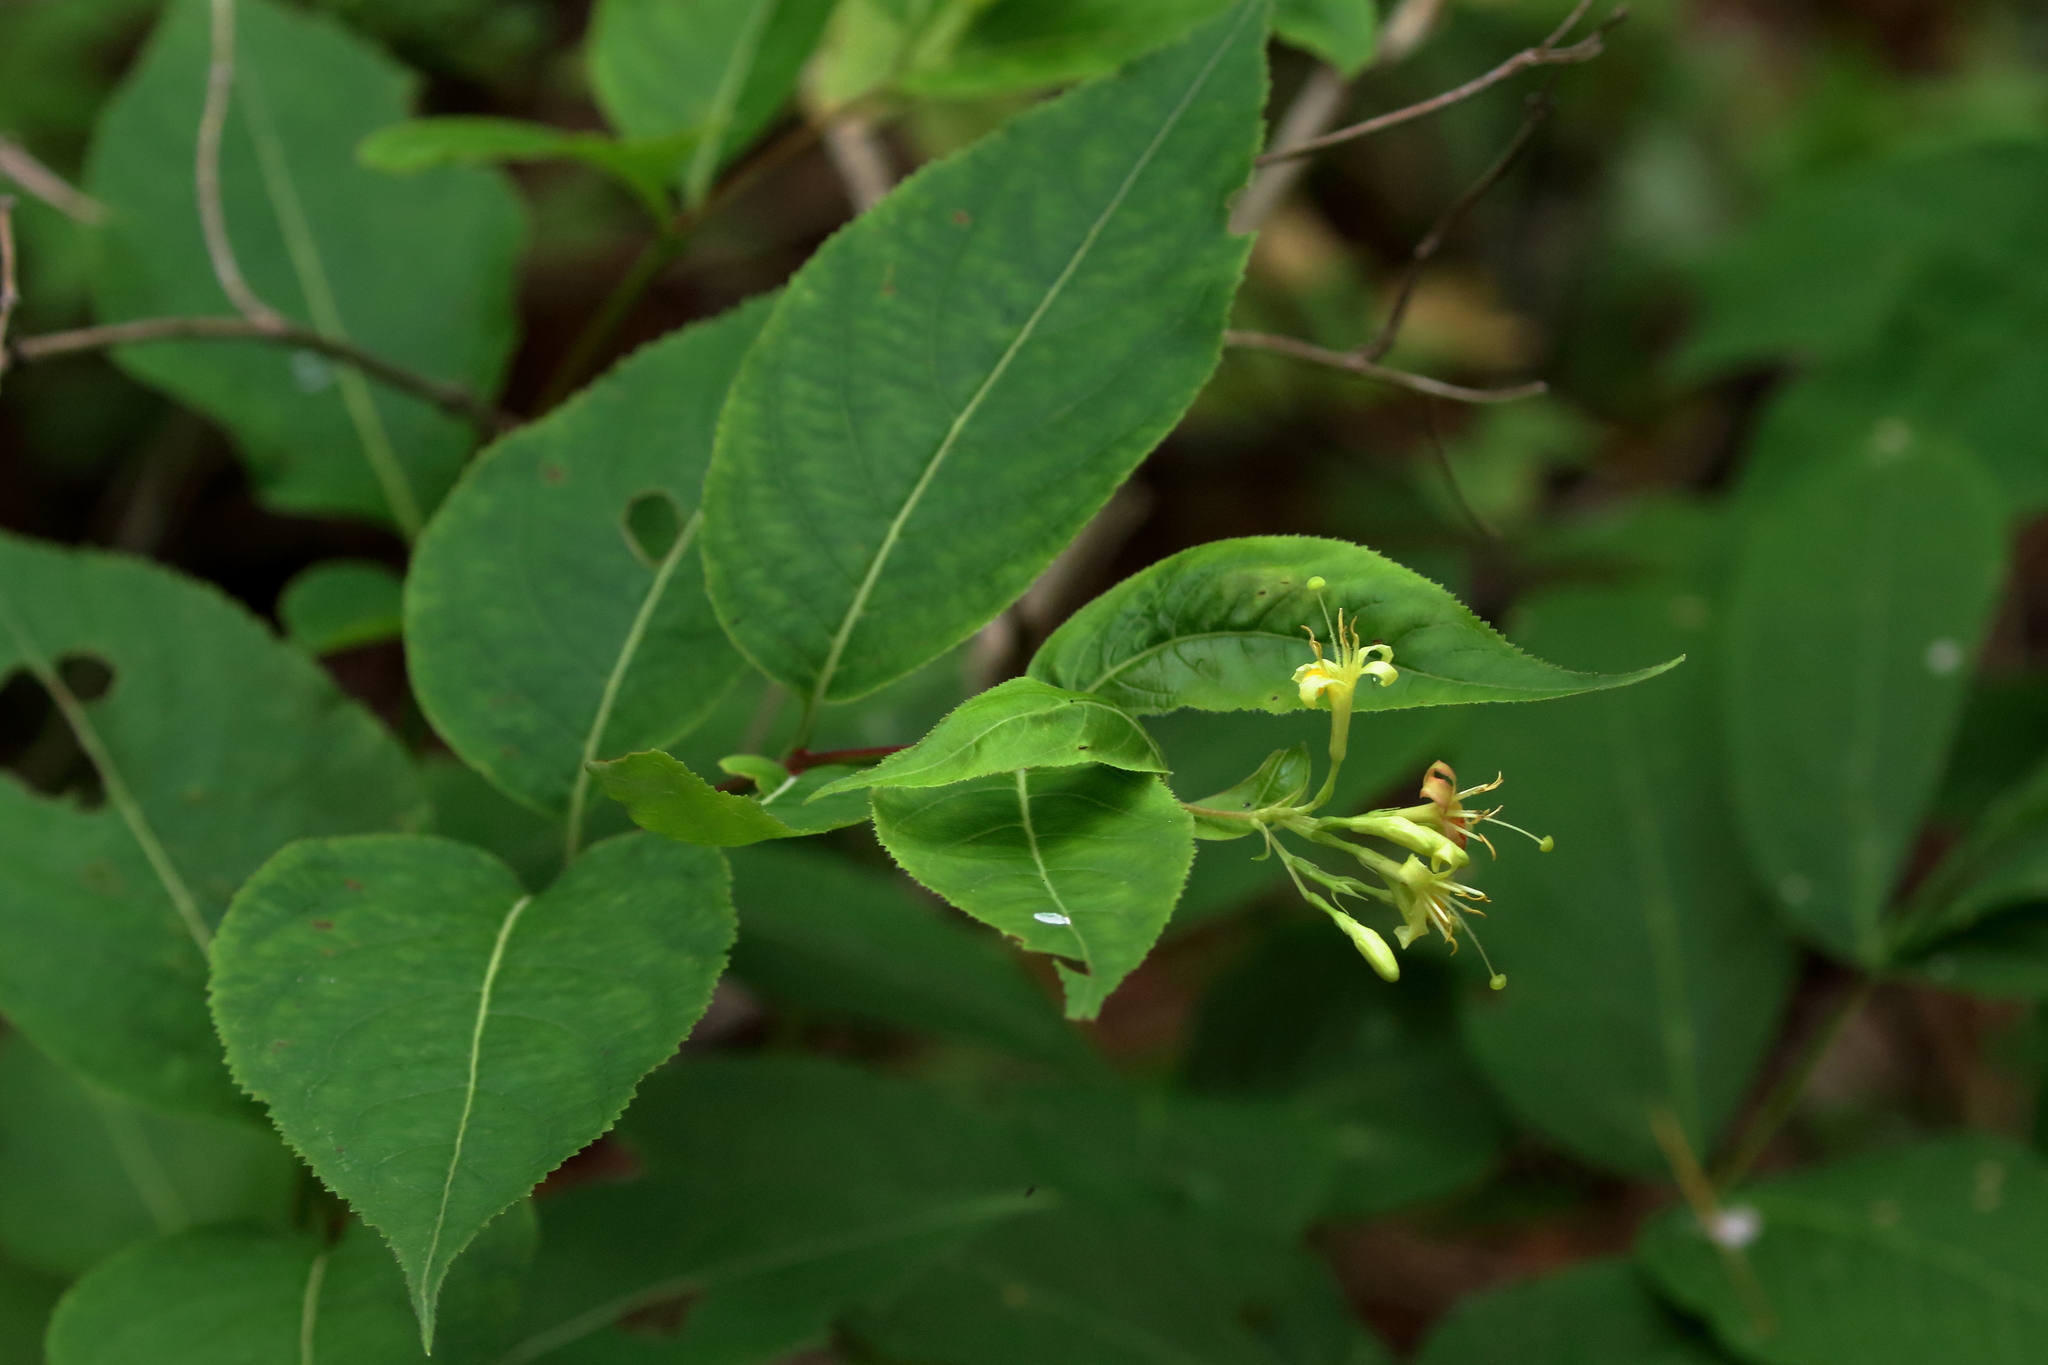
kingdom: Plantae
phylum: Tracheophyta
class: Magnoliopsida
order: Dipsacales
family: Caprifoliaceae
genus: Diervilla
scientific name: Diervilla lonicera
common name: Bush-honeysuckle
